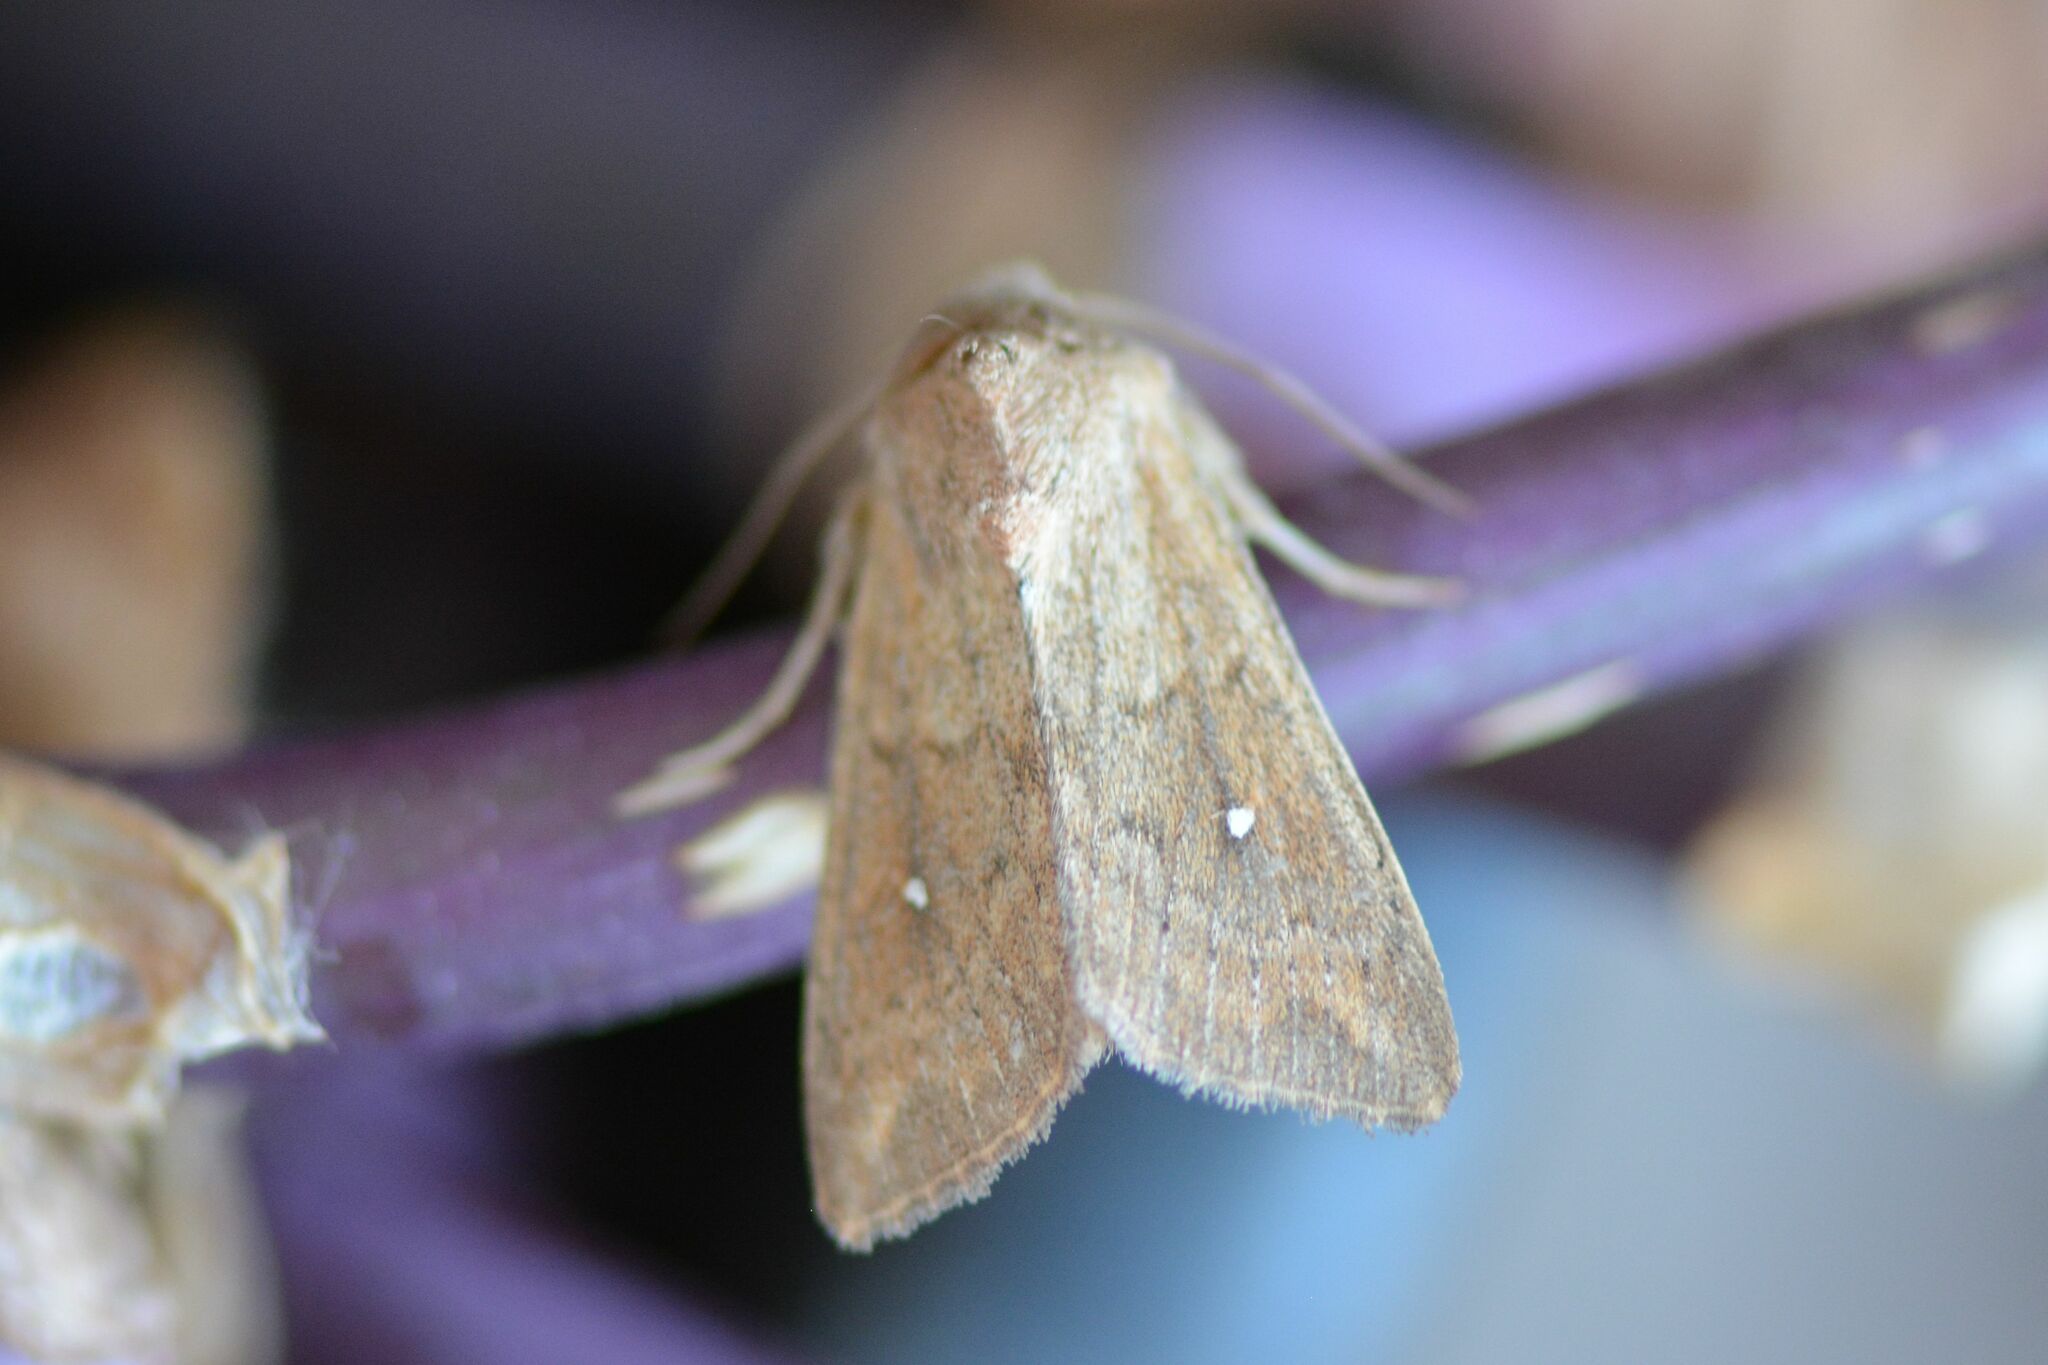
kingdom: Animalia
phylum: Arthropoda
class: Insecta
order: Lepidoptera
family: Noctuidae
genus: Mythimna
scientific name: Mythimna albipuncta
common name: White-point
